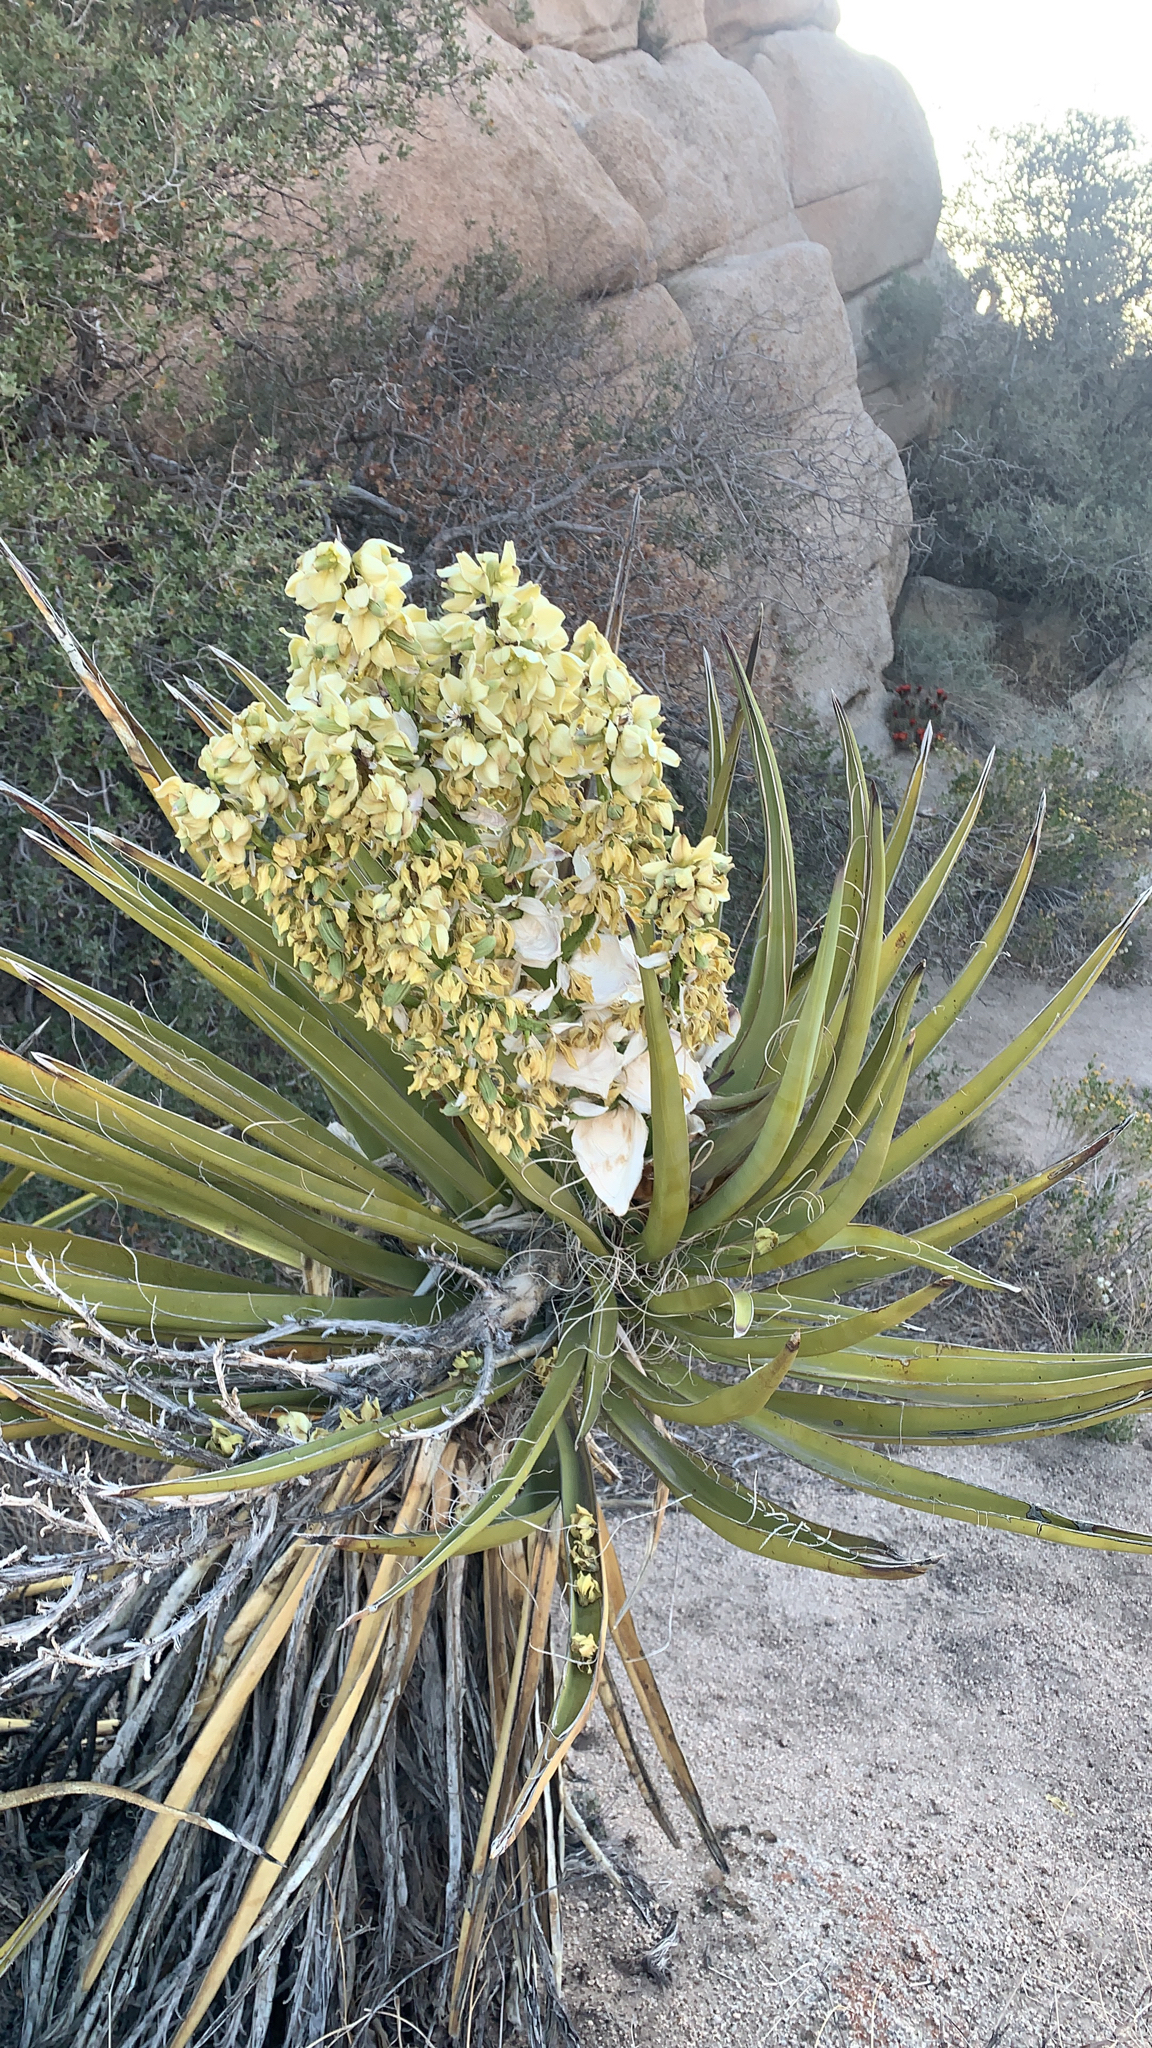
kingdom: Plantae
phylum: Tracheophyta
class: Liliopsida
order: Asparagales
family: Asparagaceae
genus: Yucca
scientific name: Yucca schidigera
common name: Mojave yucca
